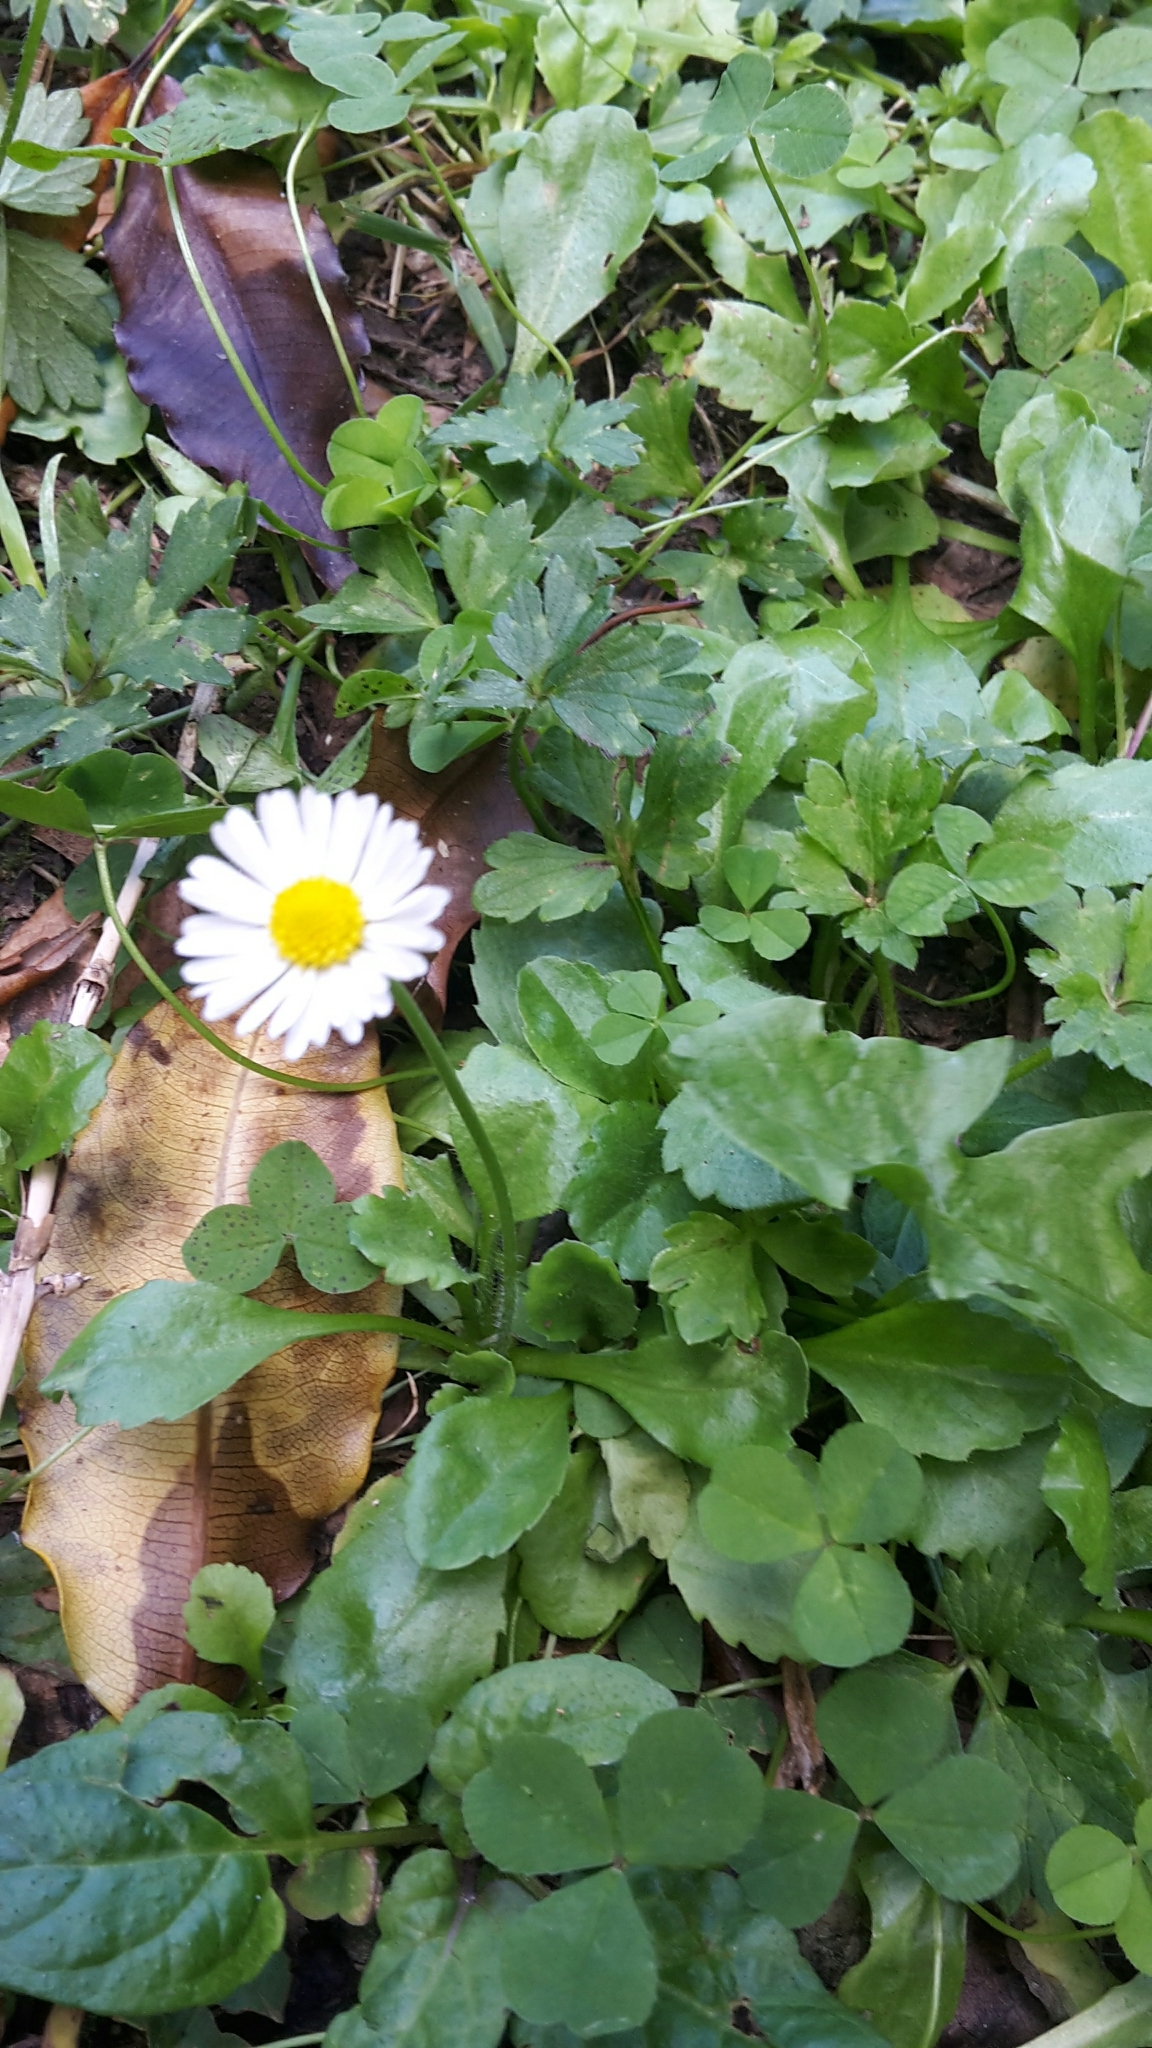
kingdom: Plantae
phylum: Tracheophyta
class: Magnoliopsida
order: Asterales
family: Asteraceae
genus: Bellis
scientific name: Bellis perennis
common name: Lawndaisy
